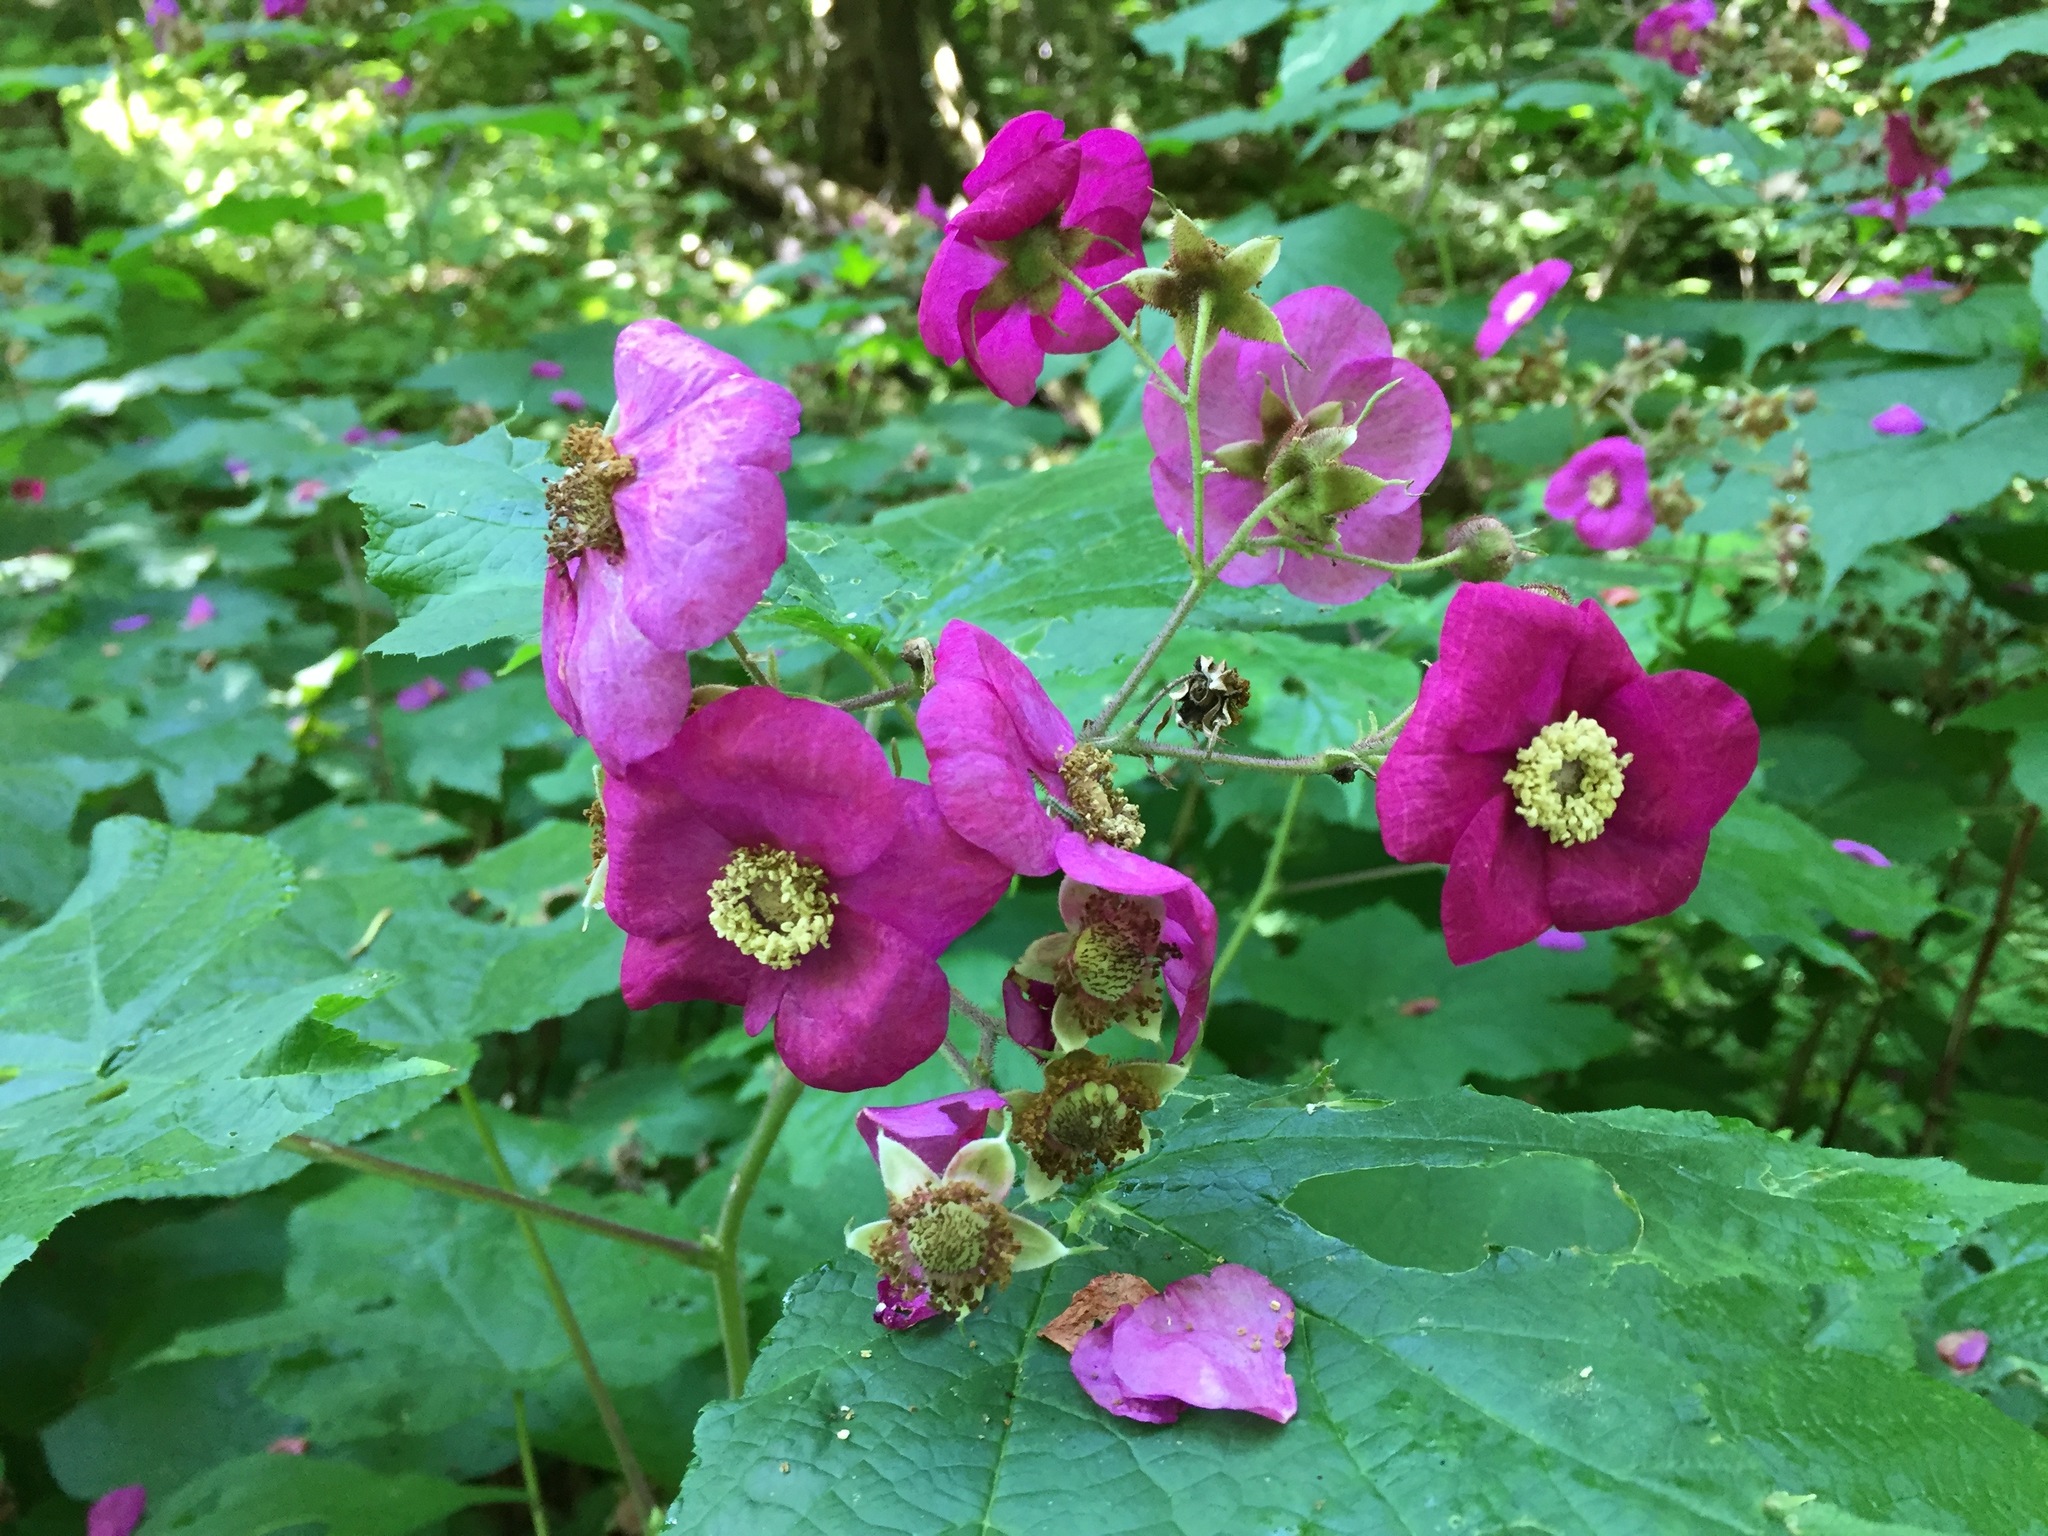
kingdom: Plantae
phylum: Tracheophyta
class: Magnoliopsida
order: Rosales
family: Rosaceae
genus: Rubus
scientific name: Rubus odoratus
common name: Purple-flowered raspberry
